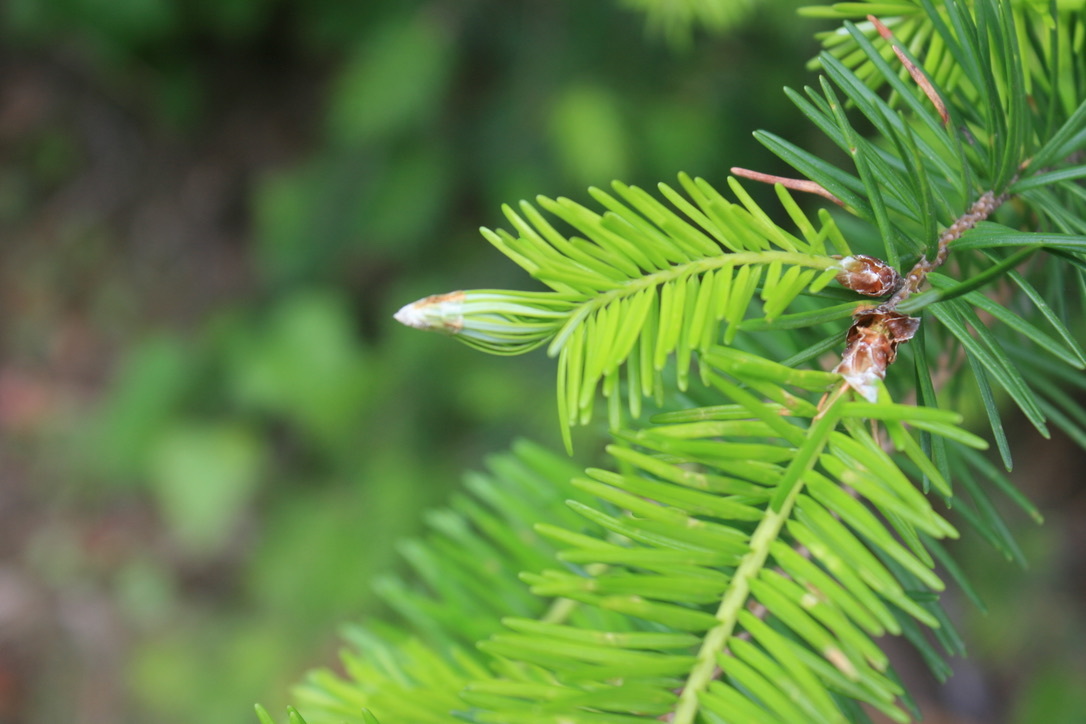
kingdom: Plantae
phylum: Tracheophyta
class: Pinopsida
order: Pinales
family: Pinaceae
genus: Pseudotsuga
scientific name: Pseudotsuga menziesii
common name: Douglas fir
